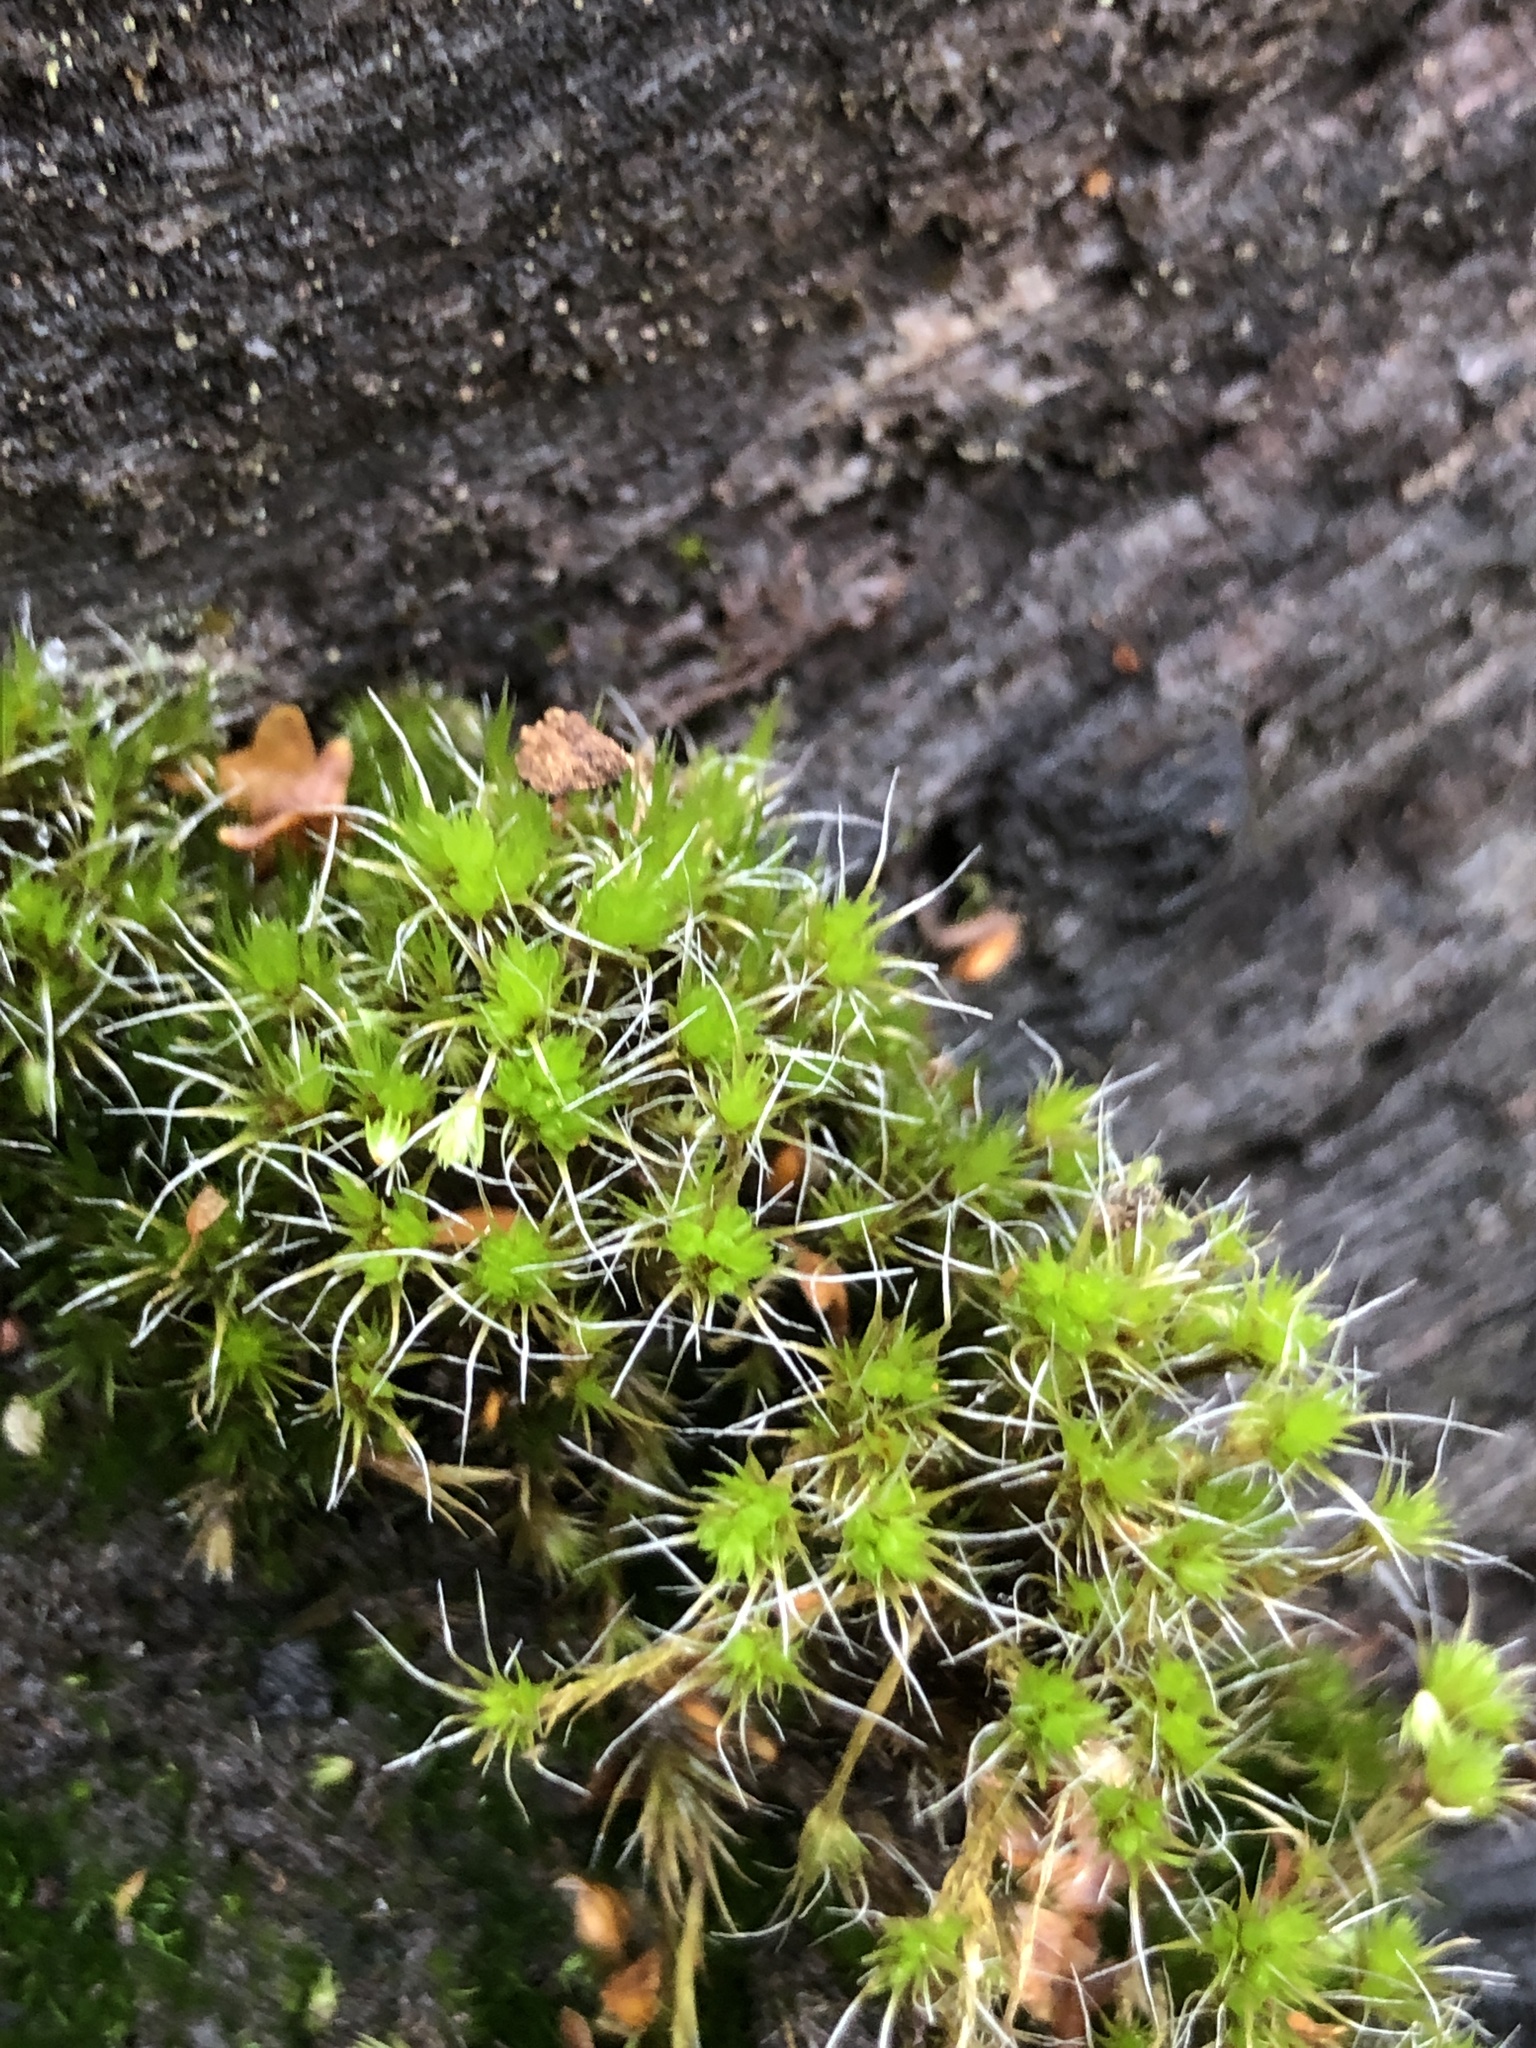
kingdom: Plantae
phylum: Bryophyta
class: Bryopsida
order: Dicranales
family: Leucobryaceae
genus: Campylopus
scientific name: Campylopus introflexus
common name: Heath star moss
